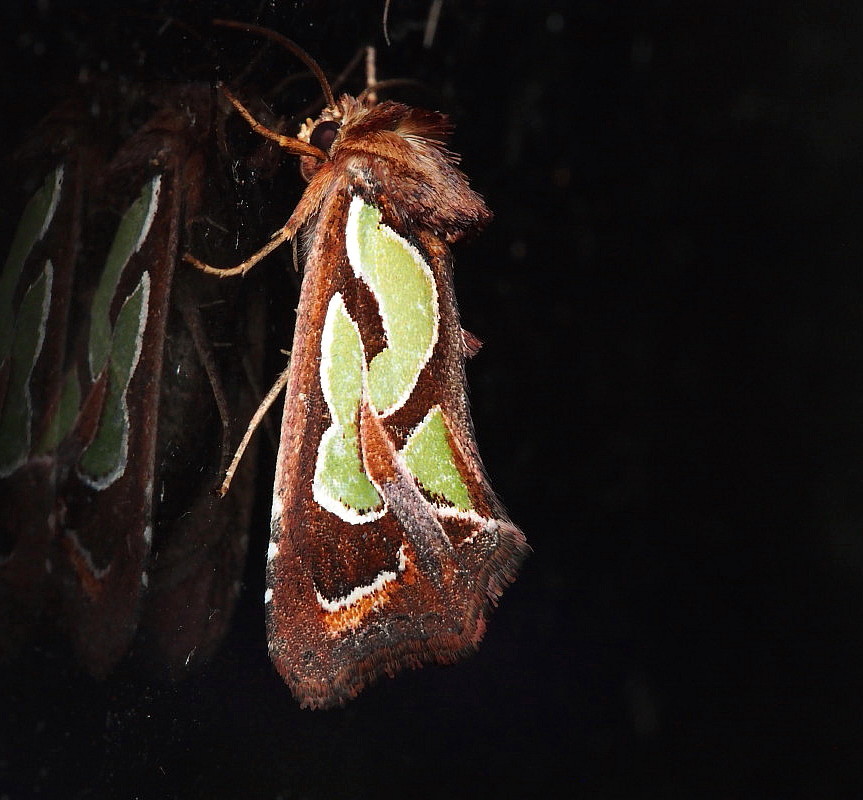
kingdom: Animalia
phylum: Arthropoda
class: Insecta
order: Lepidoptera
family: Noctuidae
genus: Cosmodes
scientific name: Cosmodes elegans
